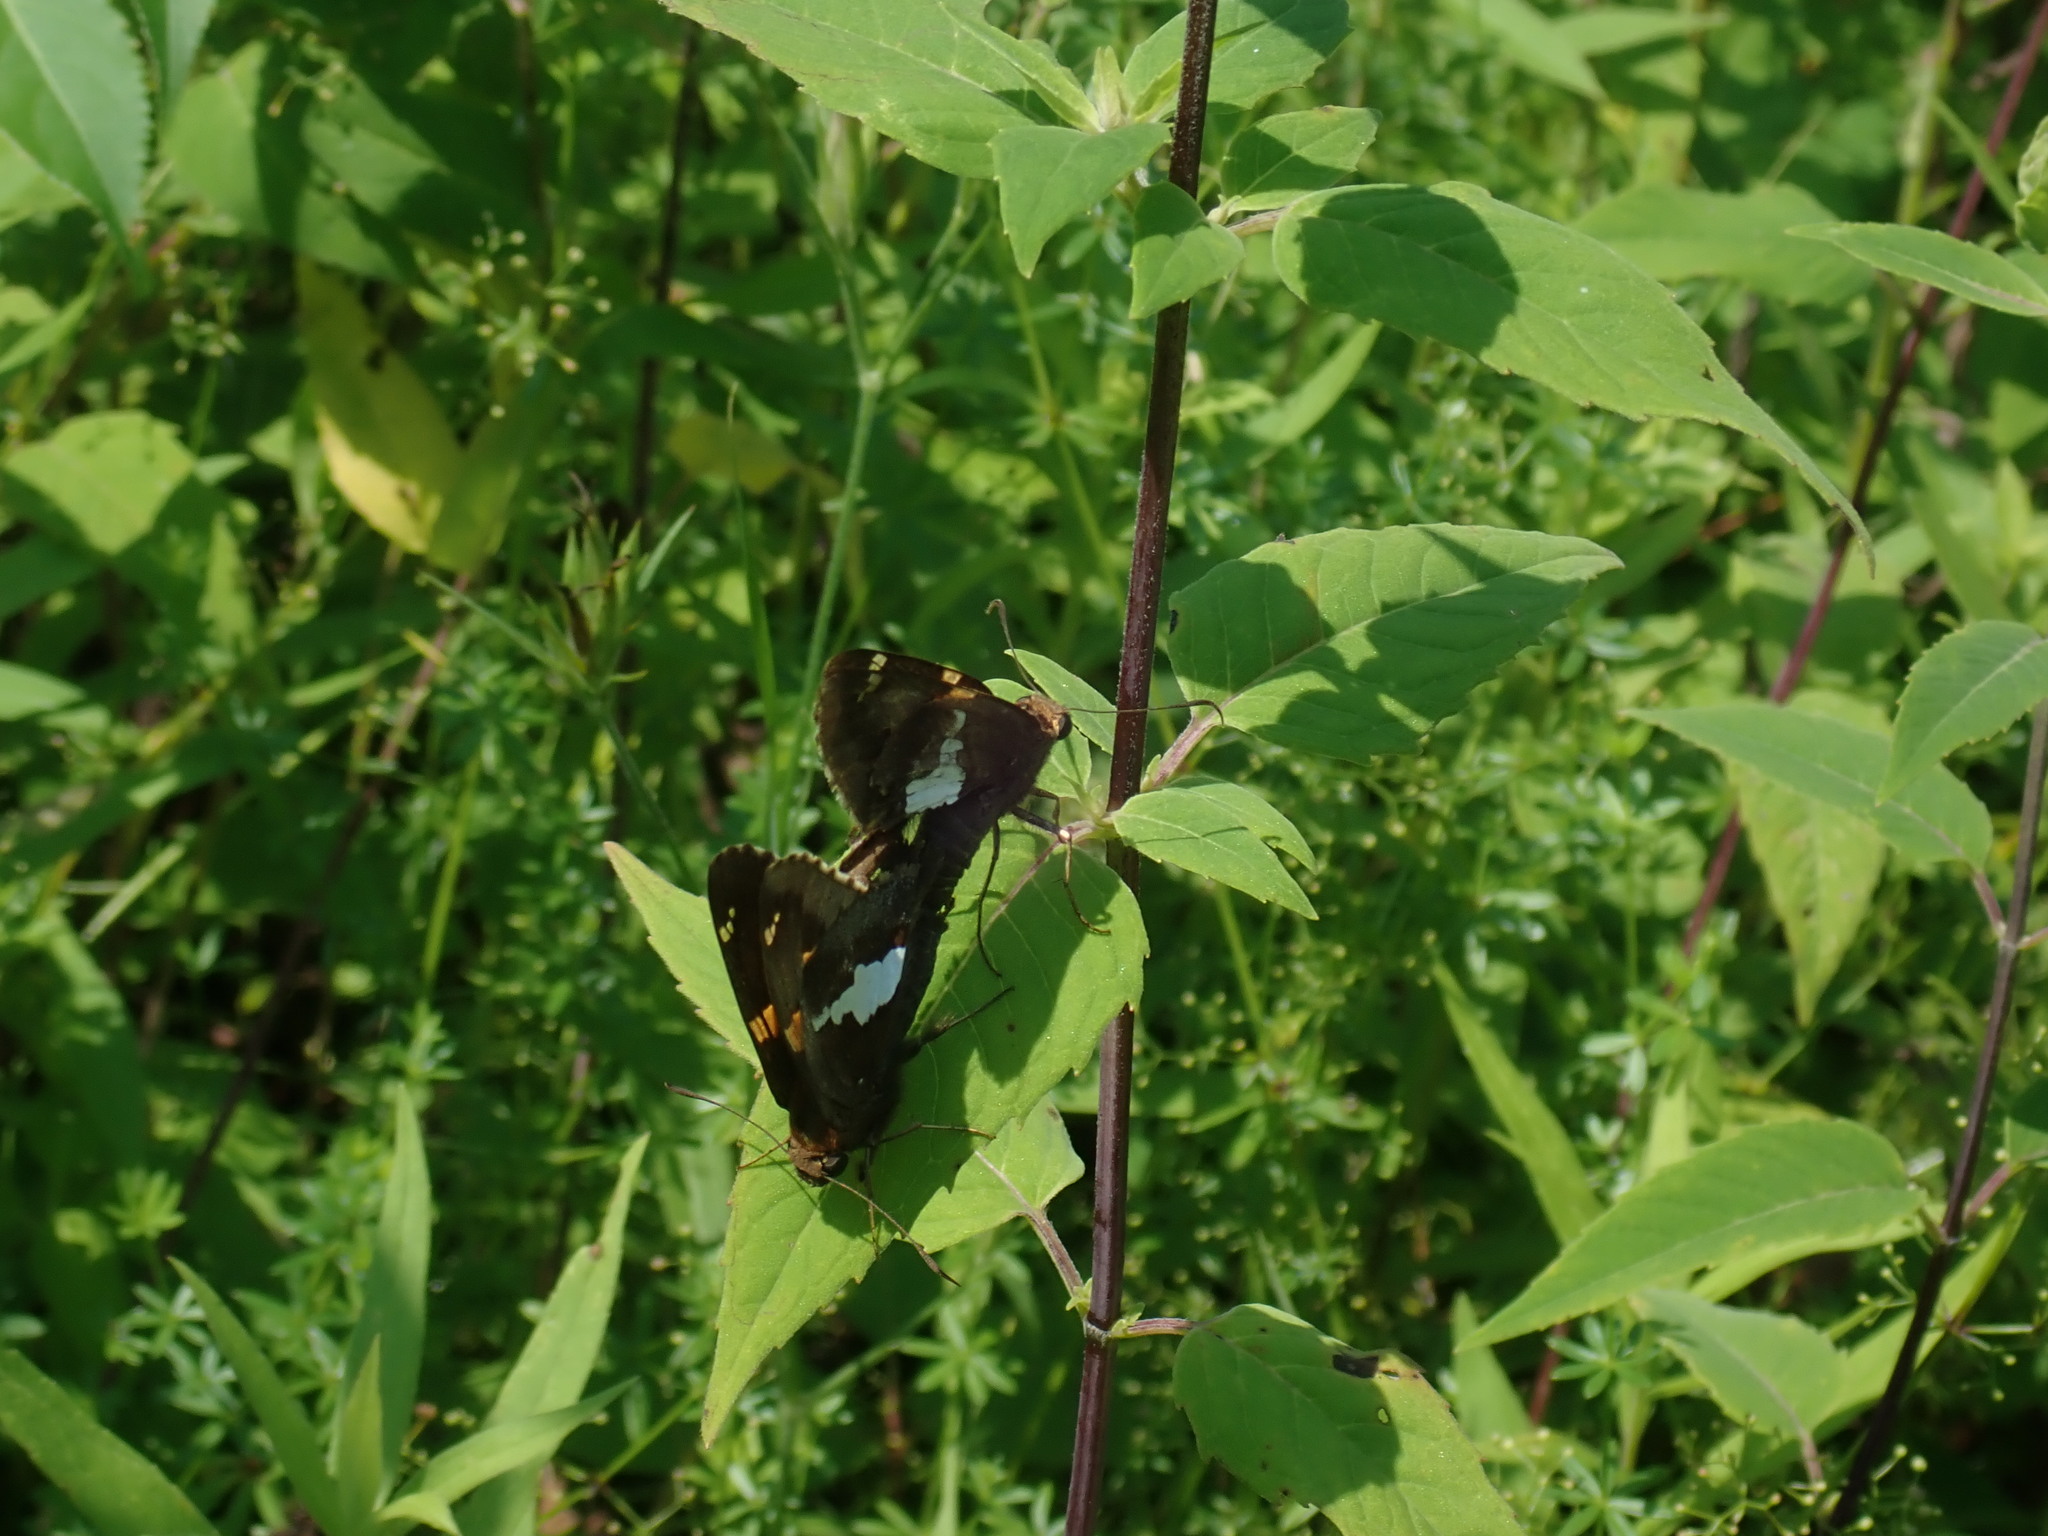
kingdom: Animalia
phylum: Arthropoda
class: Insecta
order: Lepidoptera
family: Hesperiidae
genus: Epargyreus
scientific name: Epargyreus clarus
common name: Silver-spotted skipper
